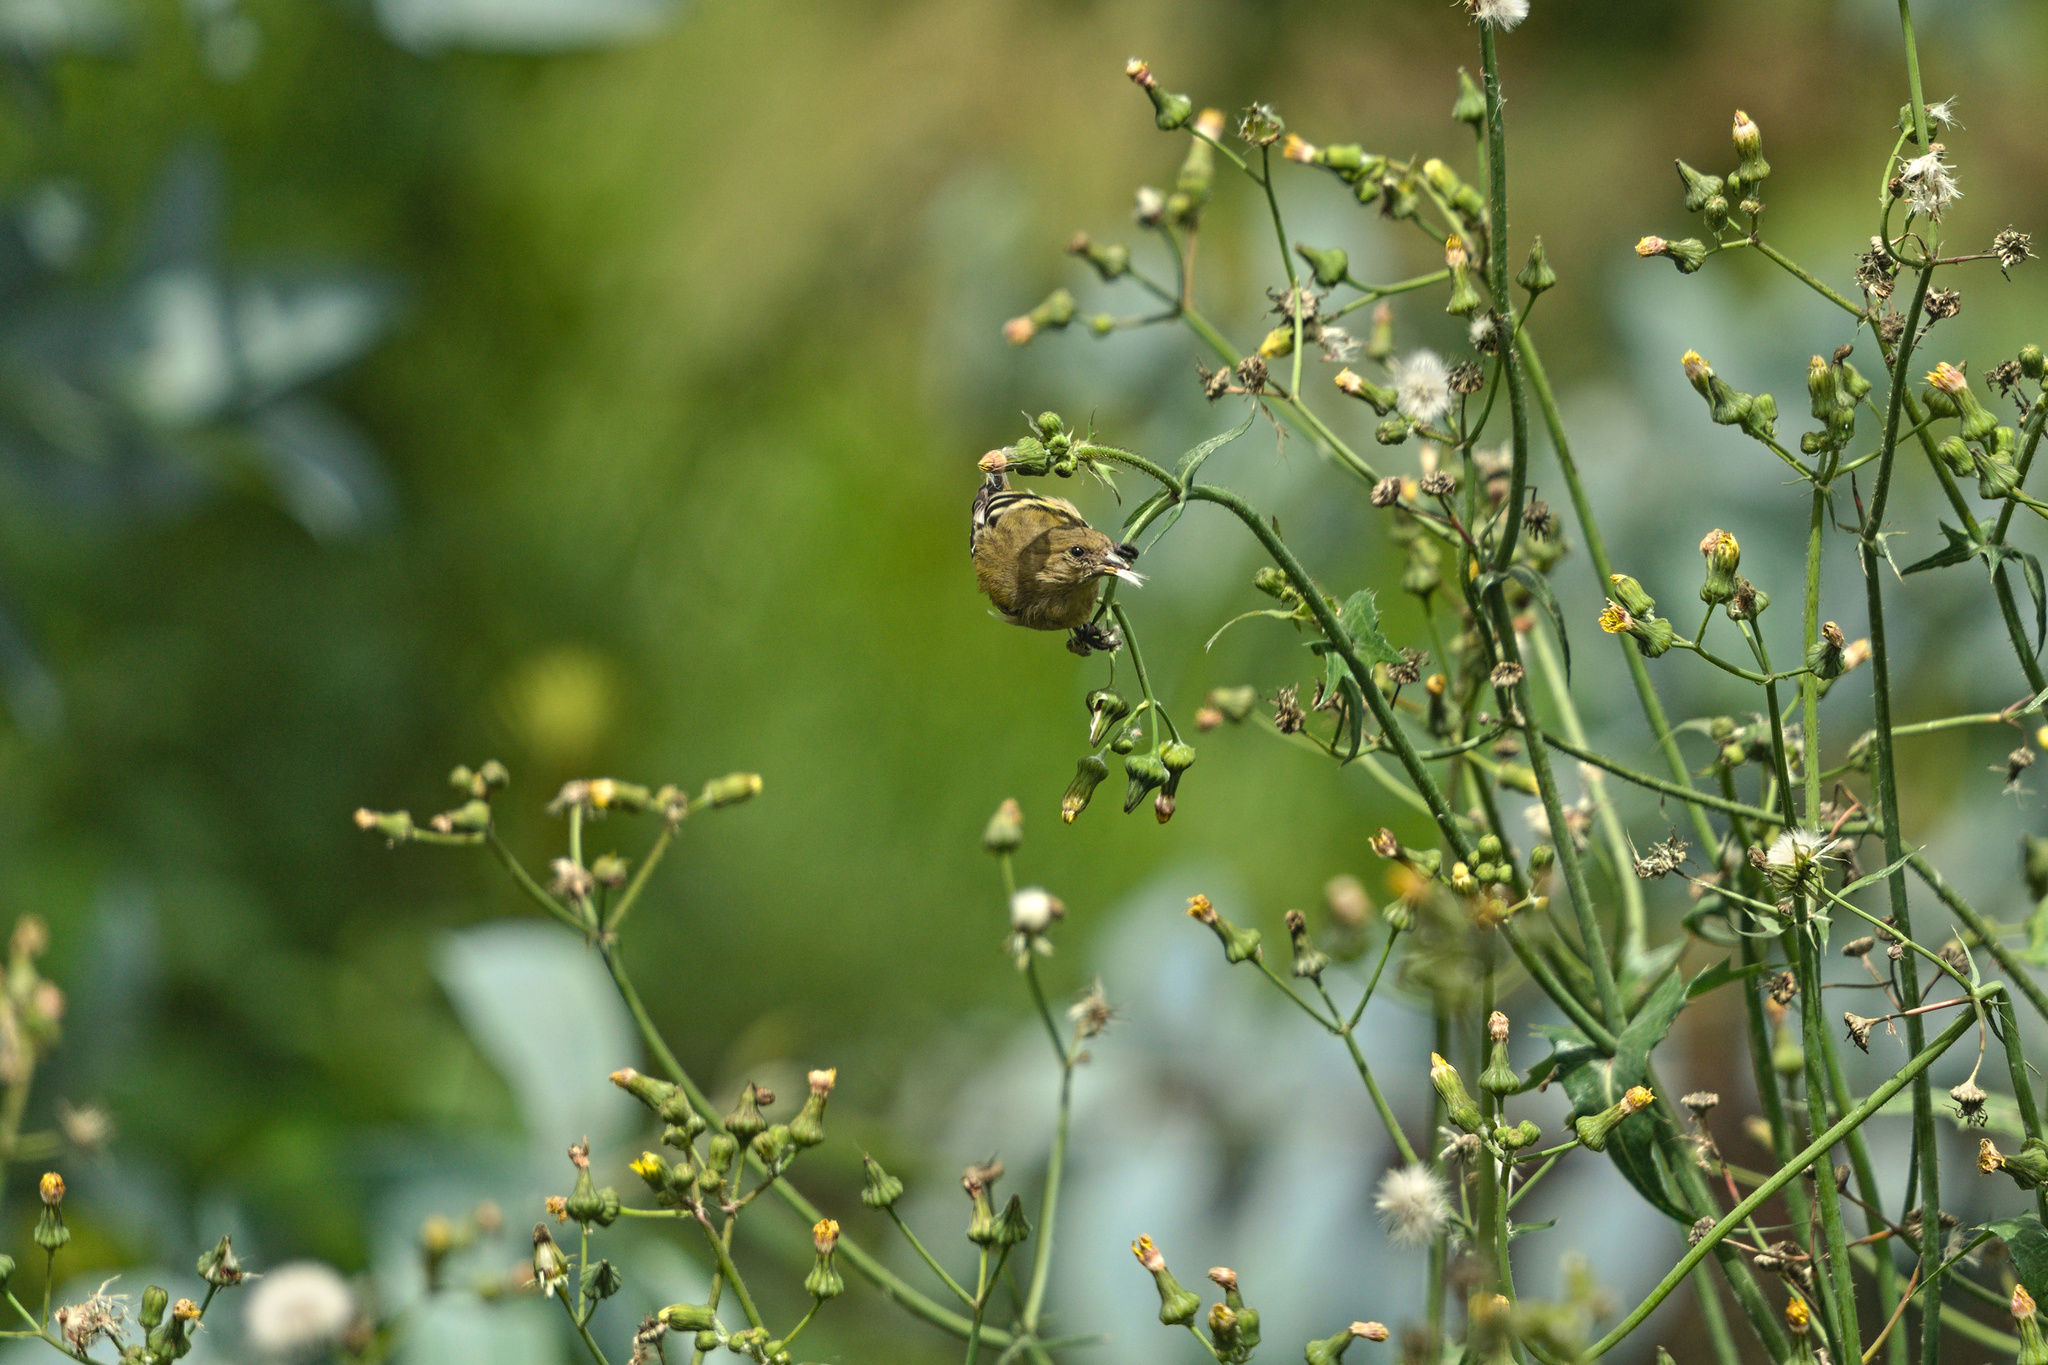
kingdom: Animalia
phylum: Chordata
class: Aves
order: Passeriformes
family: Fringillidae
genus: Spinus
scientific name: Spinus magellanicus
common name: Hooded siskin
